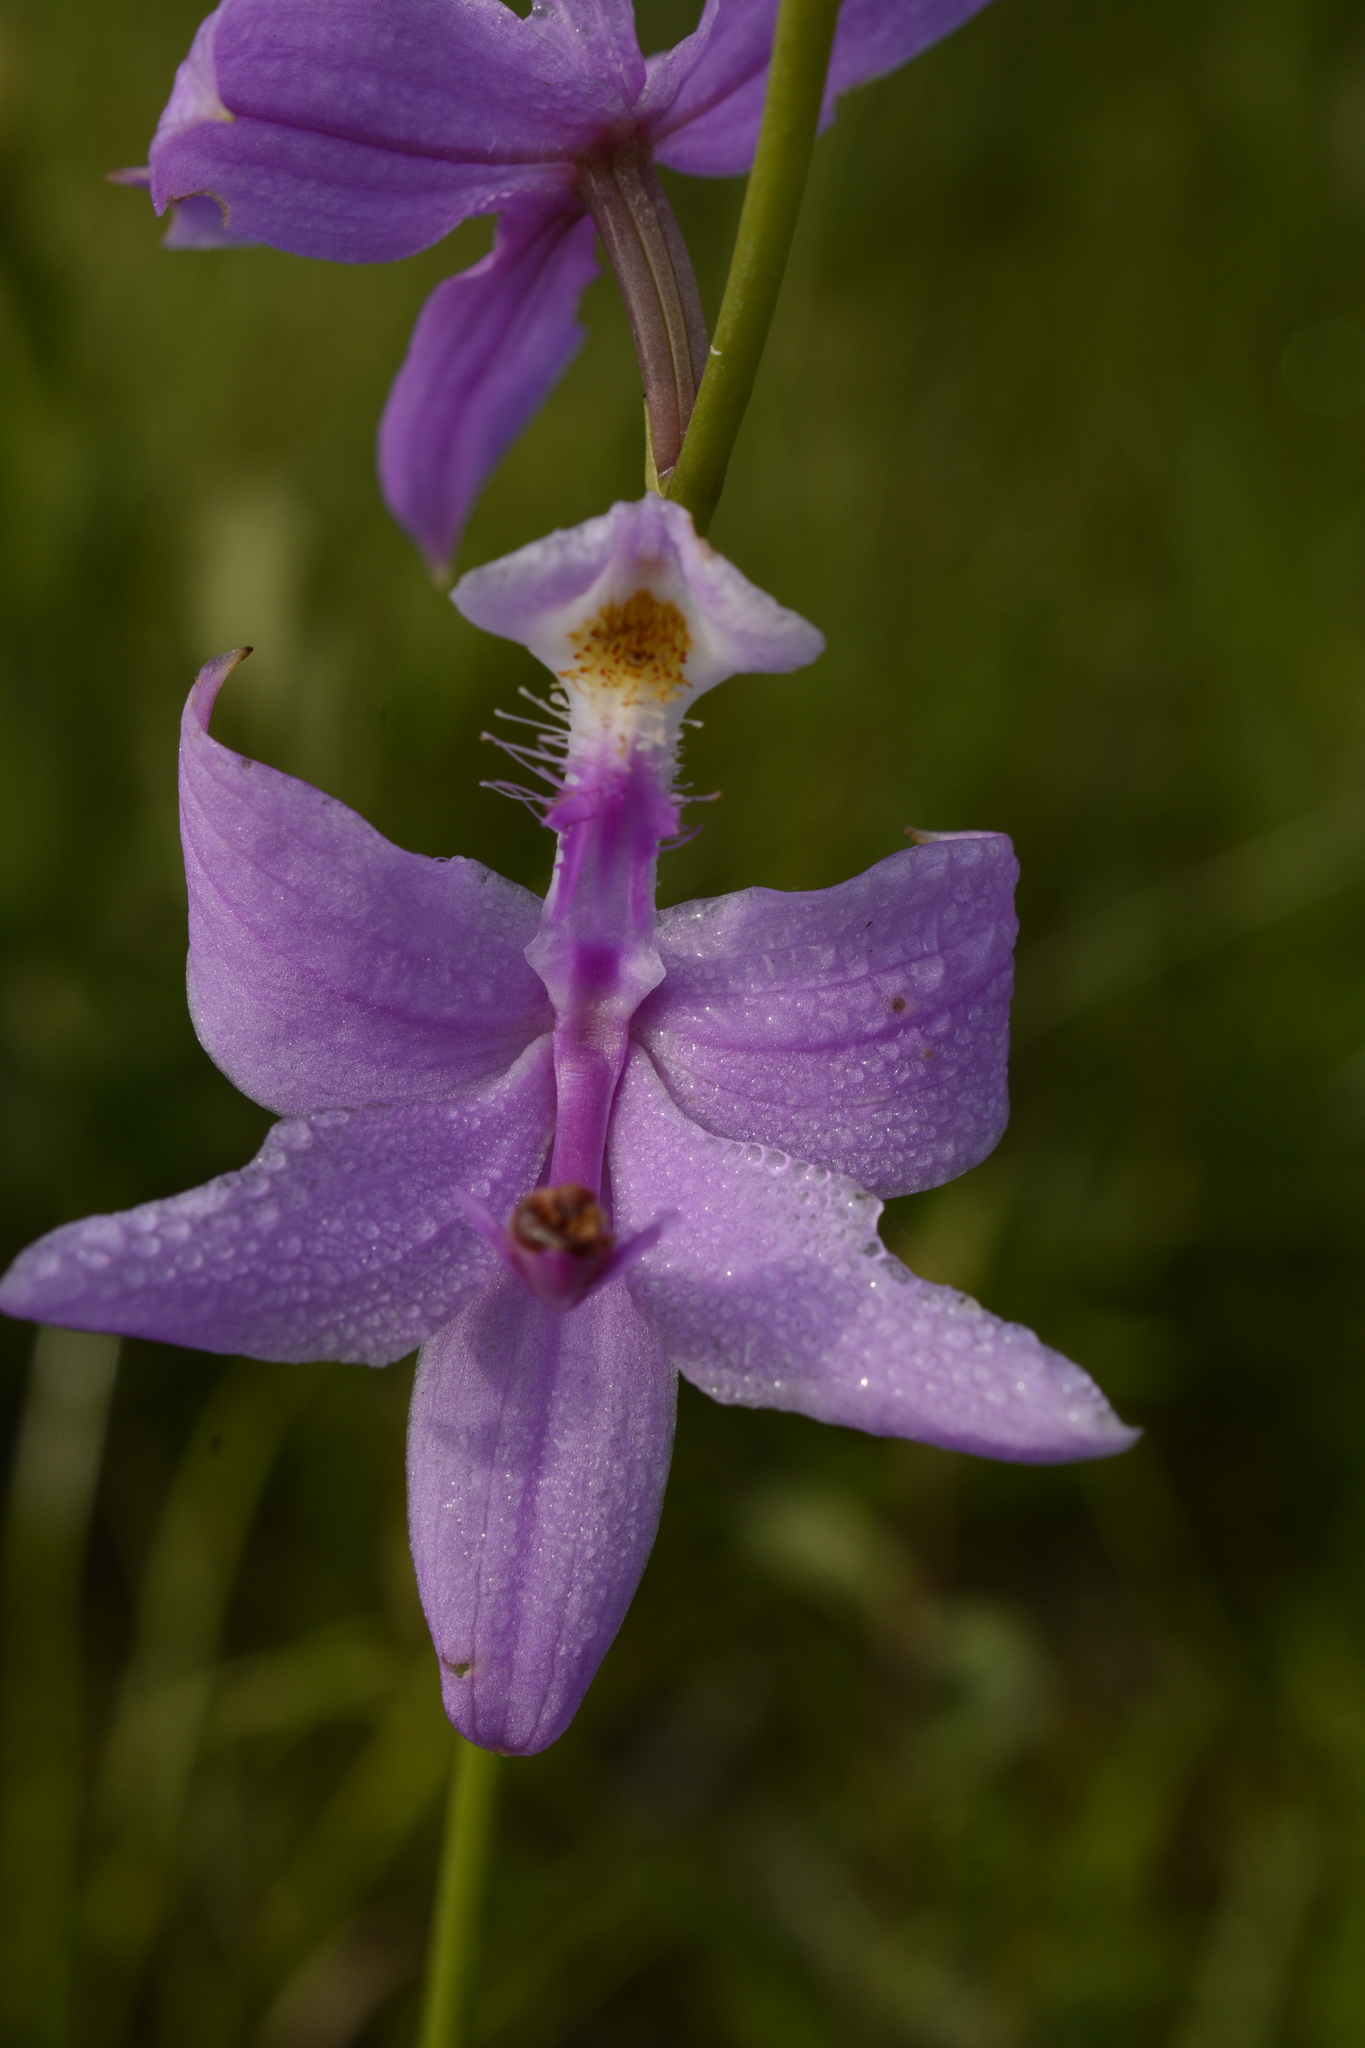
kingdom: Plantae
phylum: Tracheophyta
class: Liliopsida
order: Asparagales
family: Orchidaceae
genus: Calopogon
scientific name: Calopogon tuberosus
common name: Grass-pink
